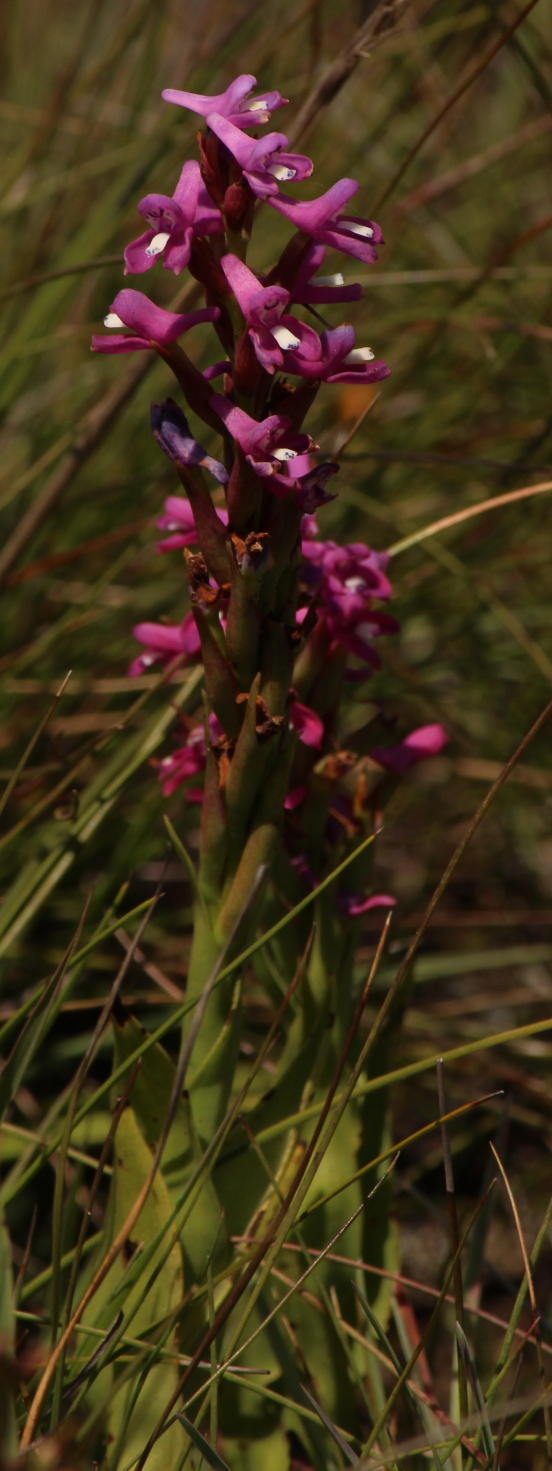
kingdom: Plantae
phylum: Tracheophyta
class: Liliopsida
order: Asparagales
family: Orchidaceae
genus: Disa
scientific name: Disa stachyoides
